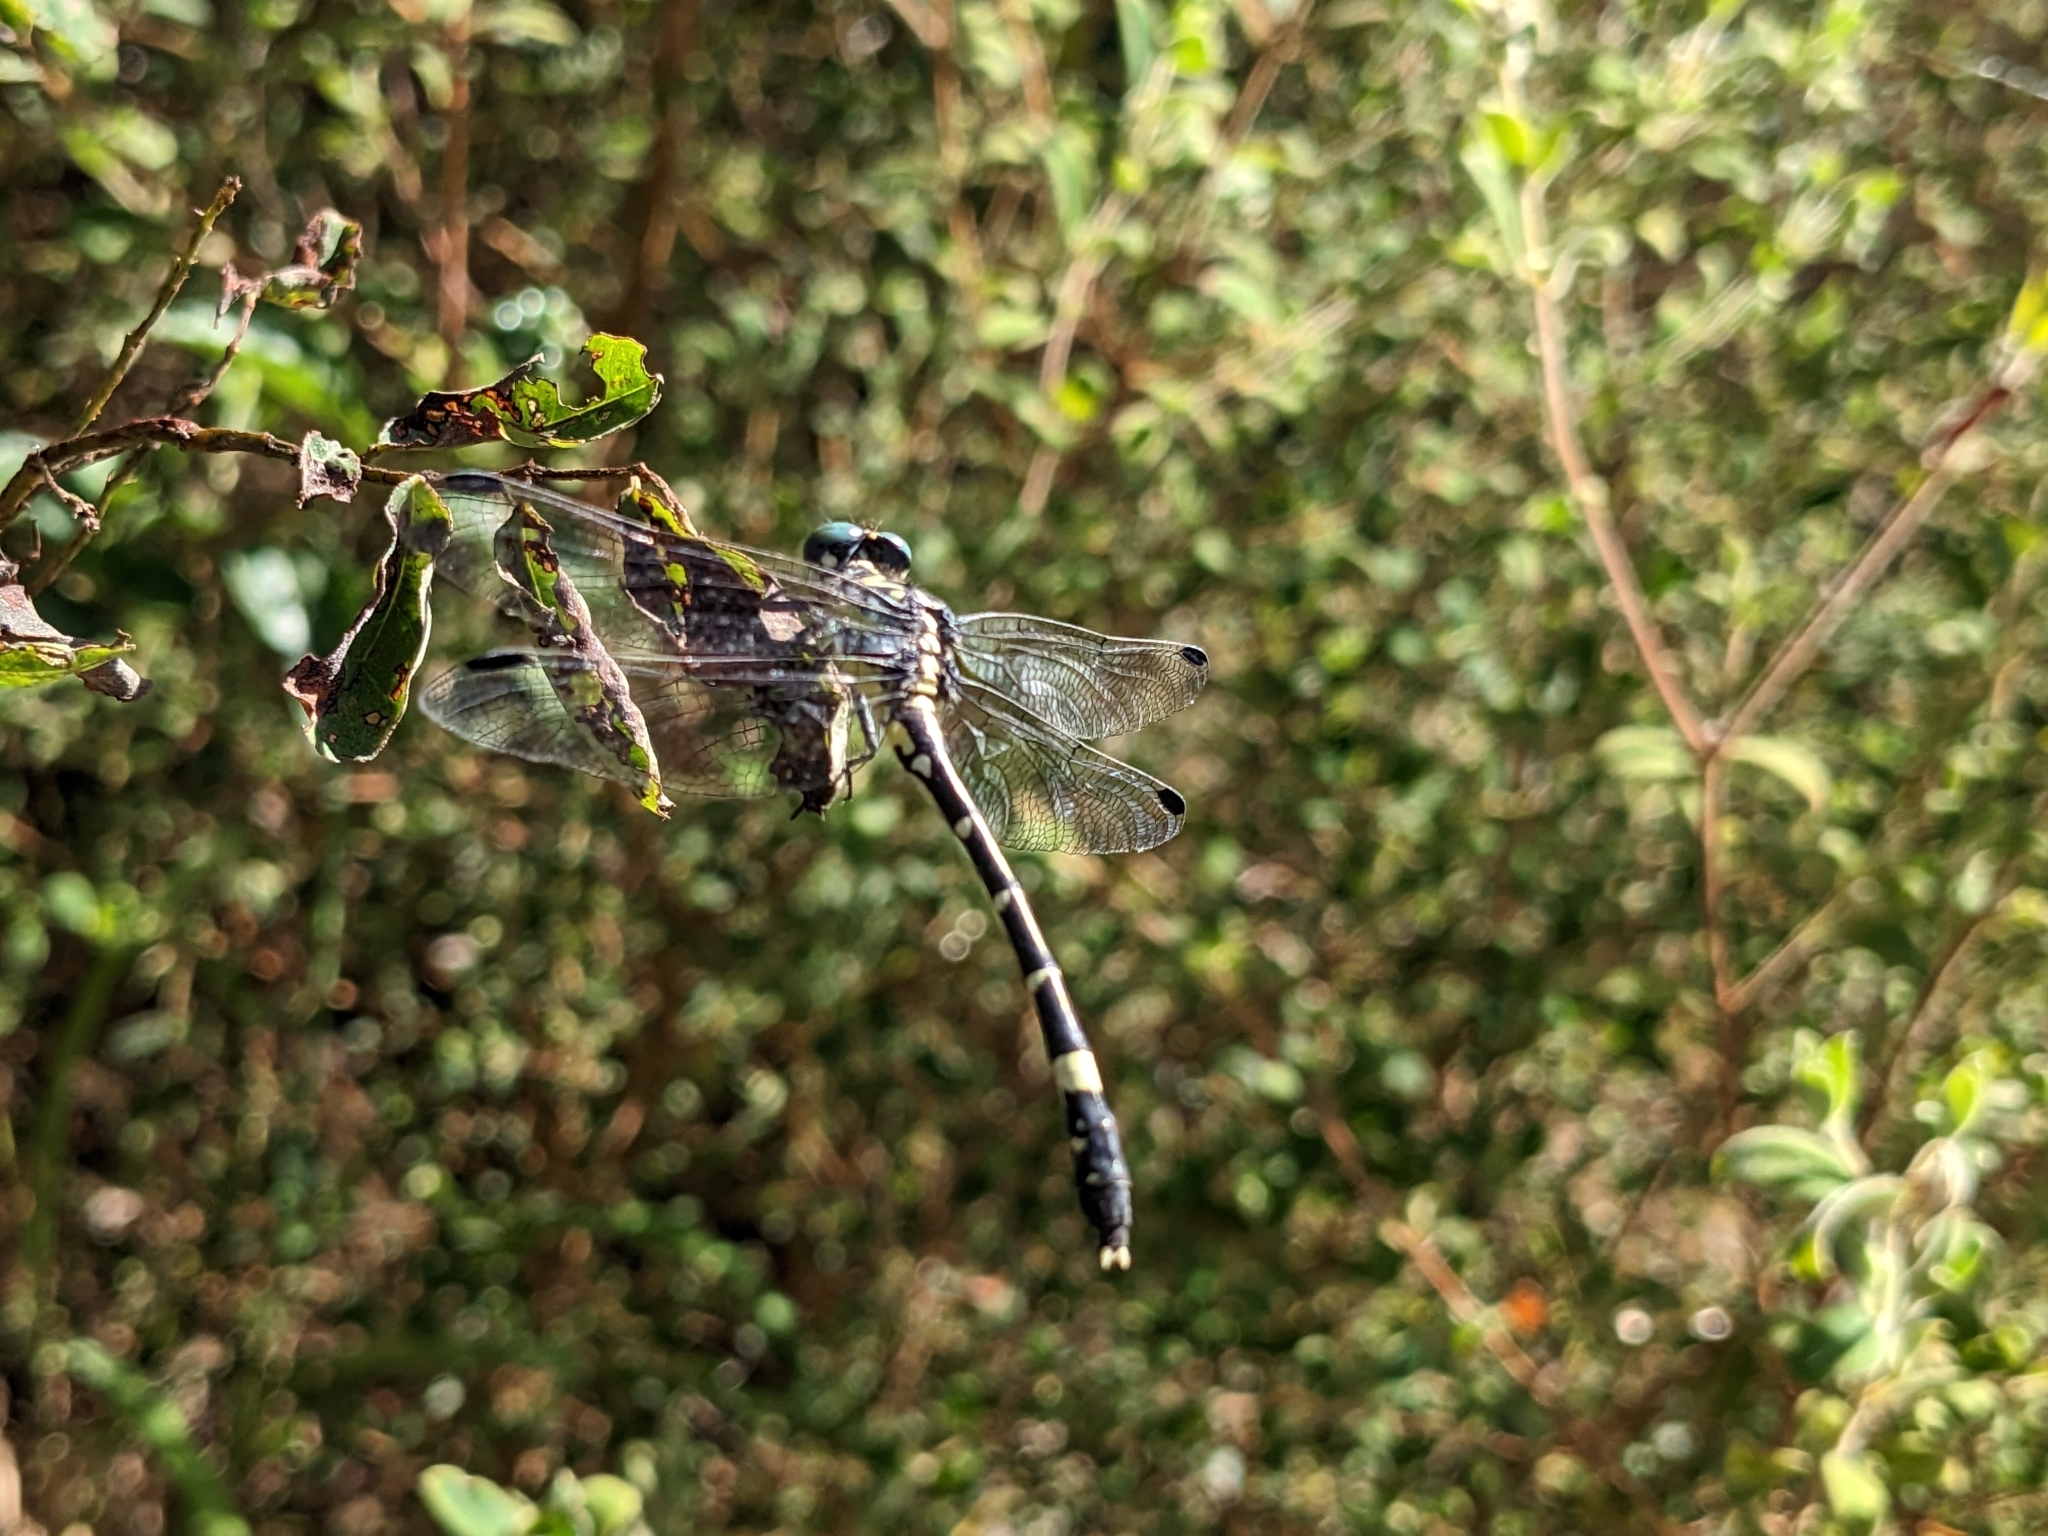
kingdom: Animalia
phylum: Arthropoda
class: Insecta
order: Odonata
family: Gomphidae
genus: Austroepigomphus
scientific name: Austroepigomphus praeruptus
